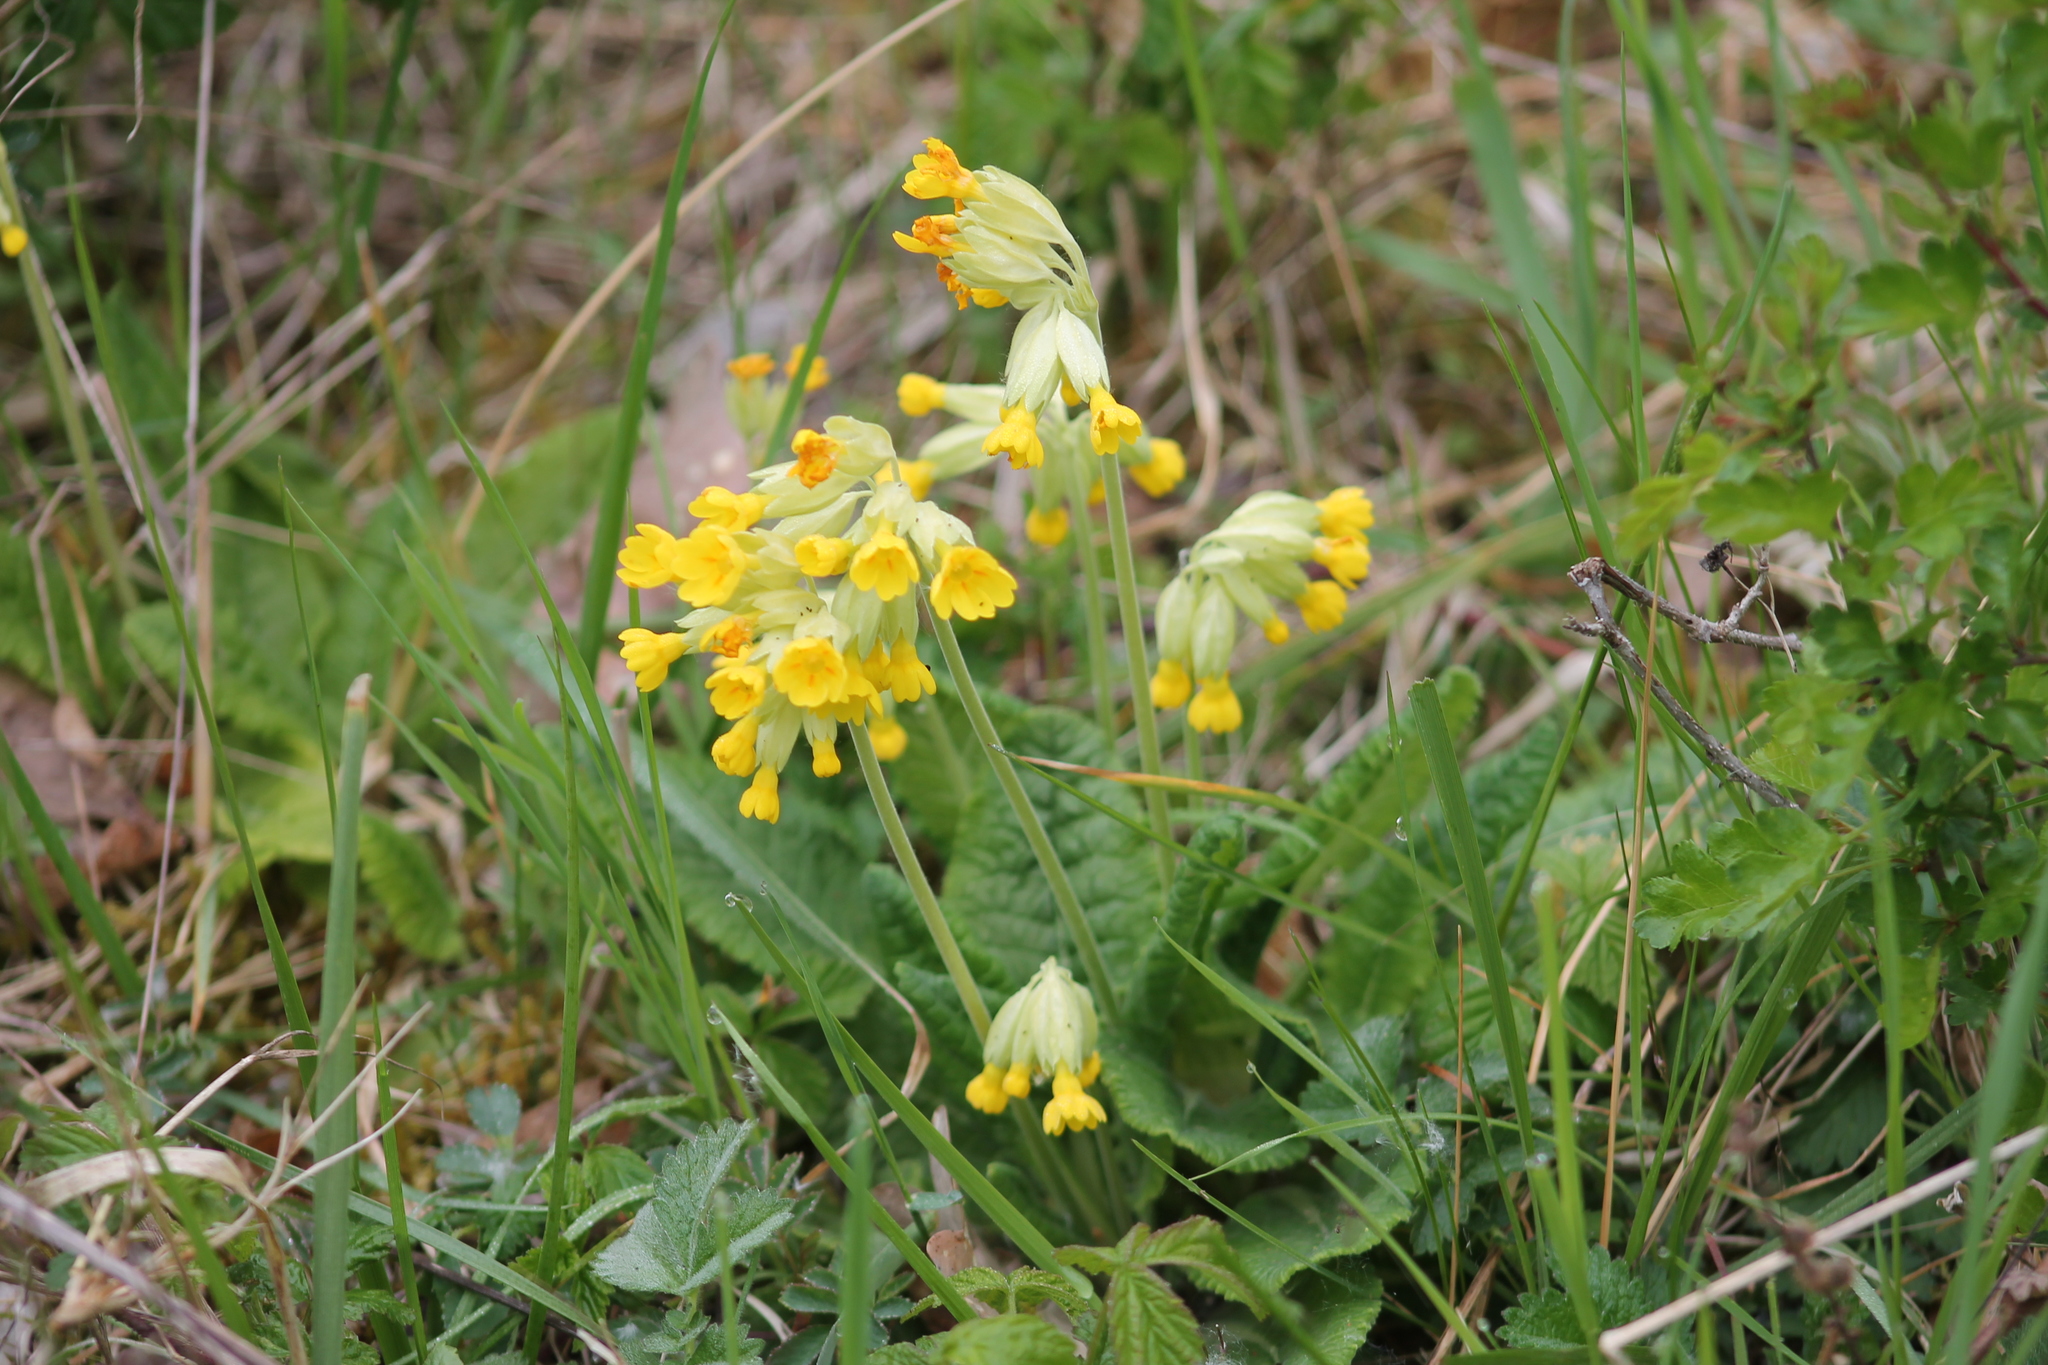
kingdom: Plantae
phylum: Tracheophyta
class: Magnoliopsida
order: Ericales
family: Primulaceae
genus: Primula
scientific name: Primula veris
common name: Cowslip
